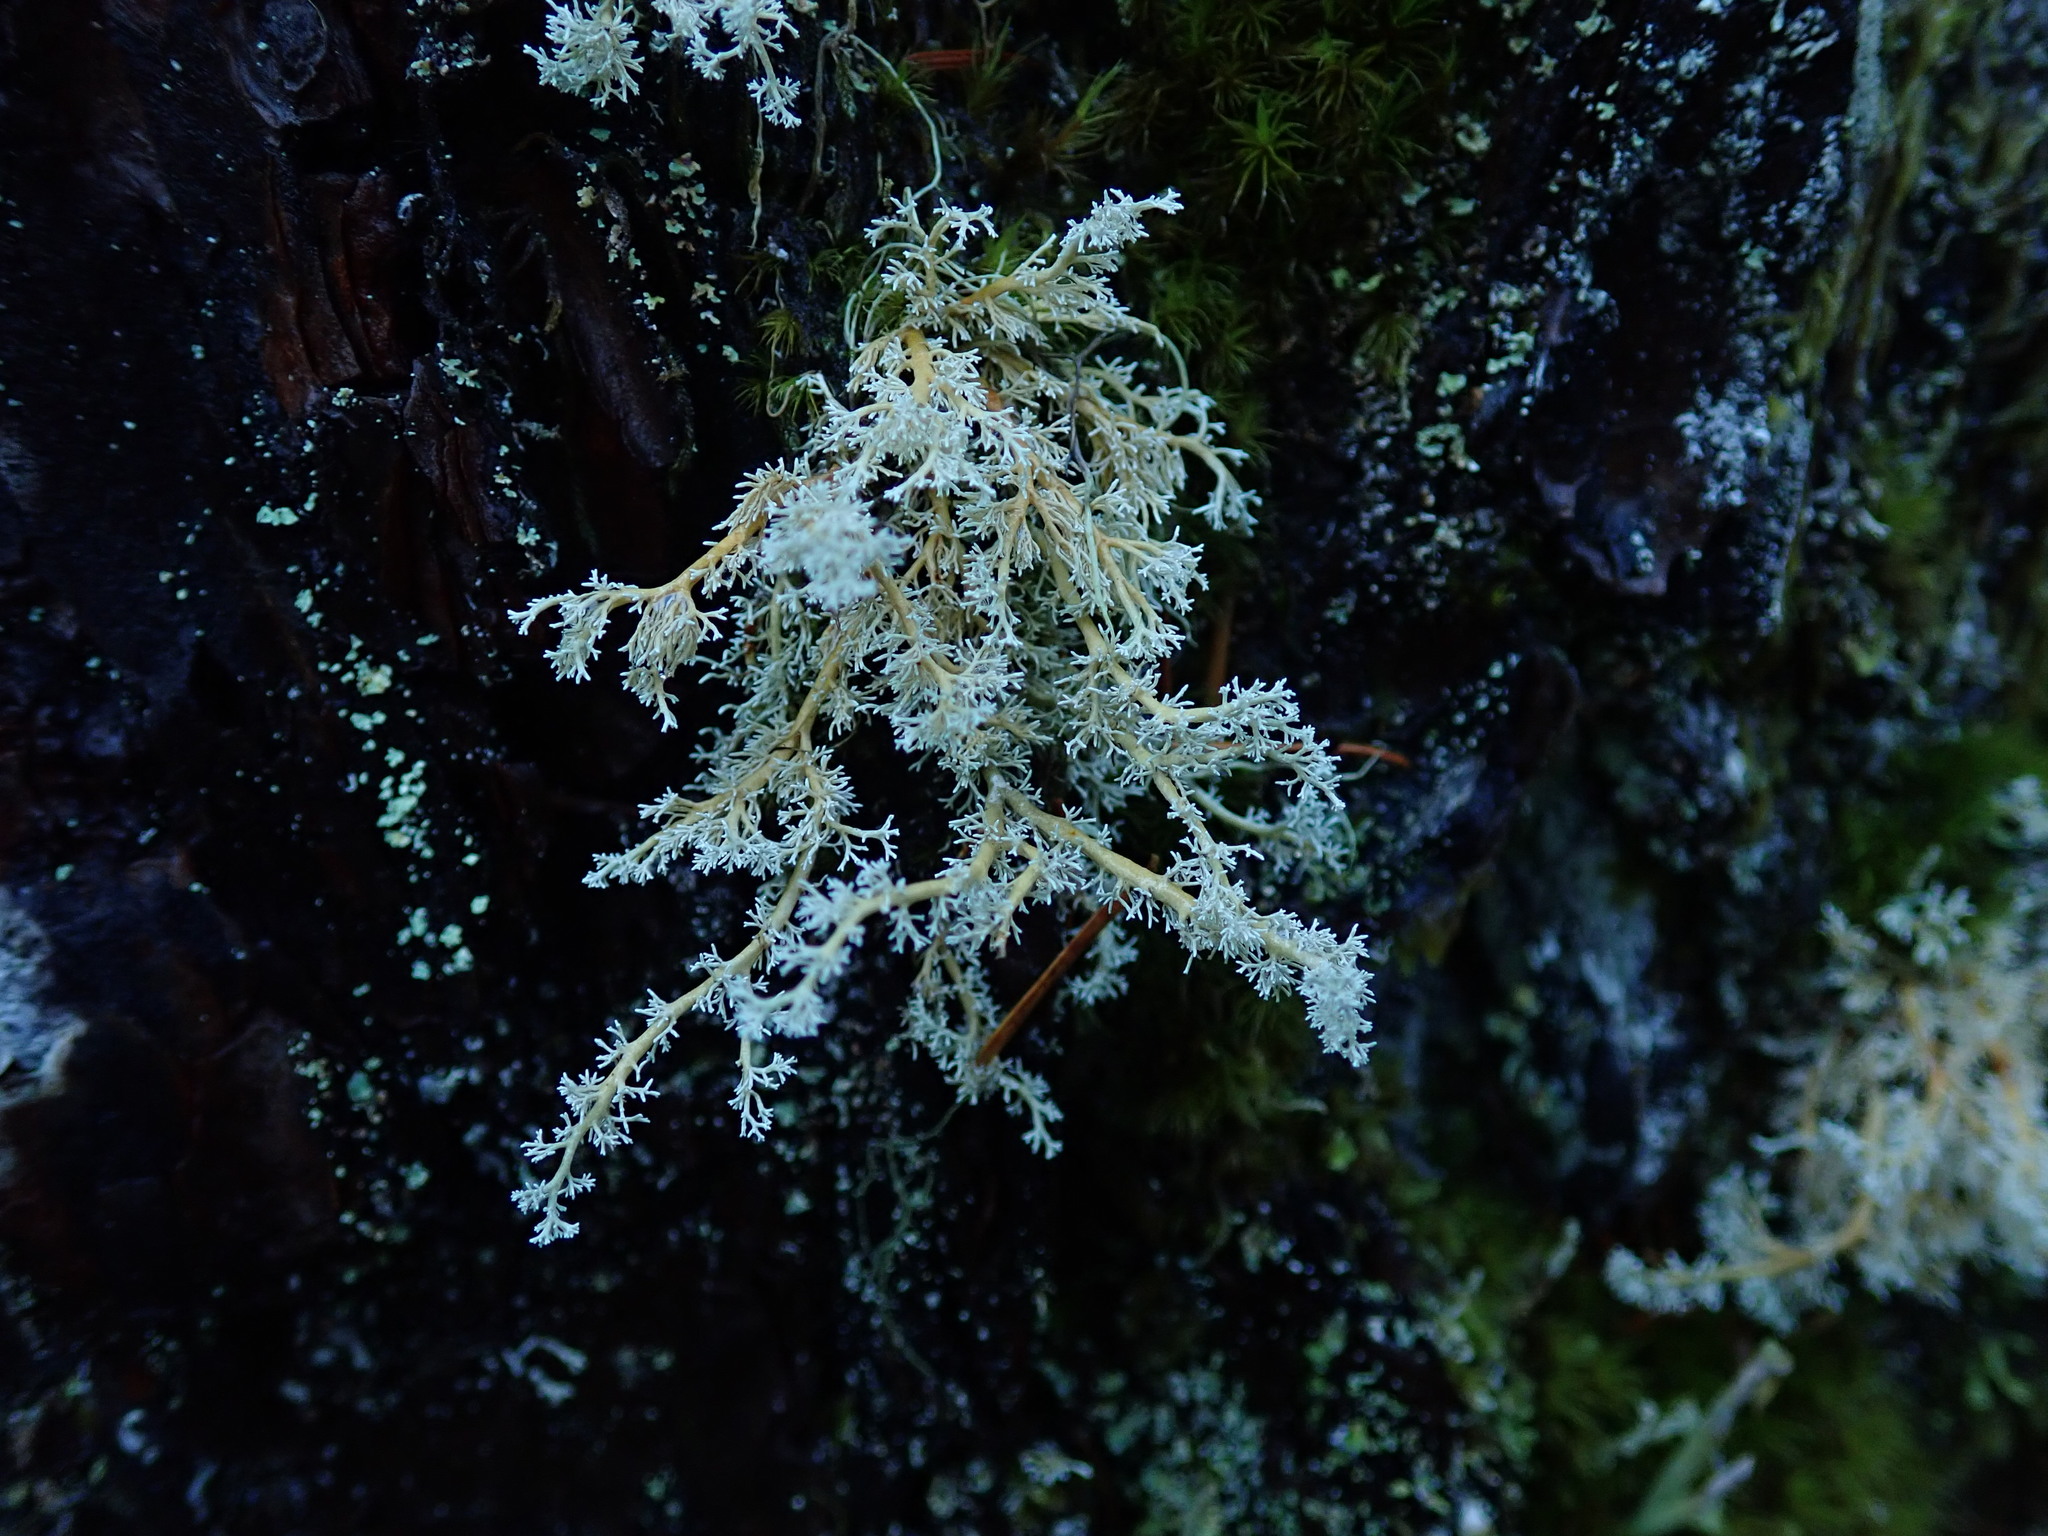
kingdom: Fungi
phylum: Ascomycota
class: Lecanoromycetes
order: Lecanorales
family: Sphaerophoraceae
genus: Sphaerophorus
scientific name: Sphaerophorus globosus
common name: Globe ball lichen
